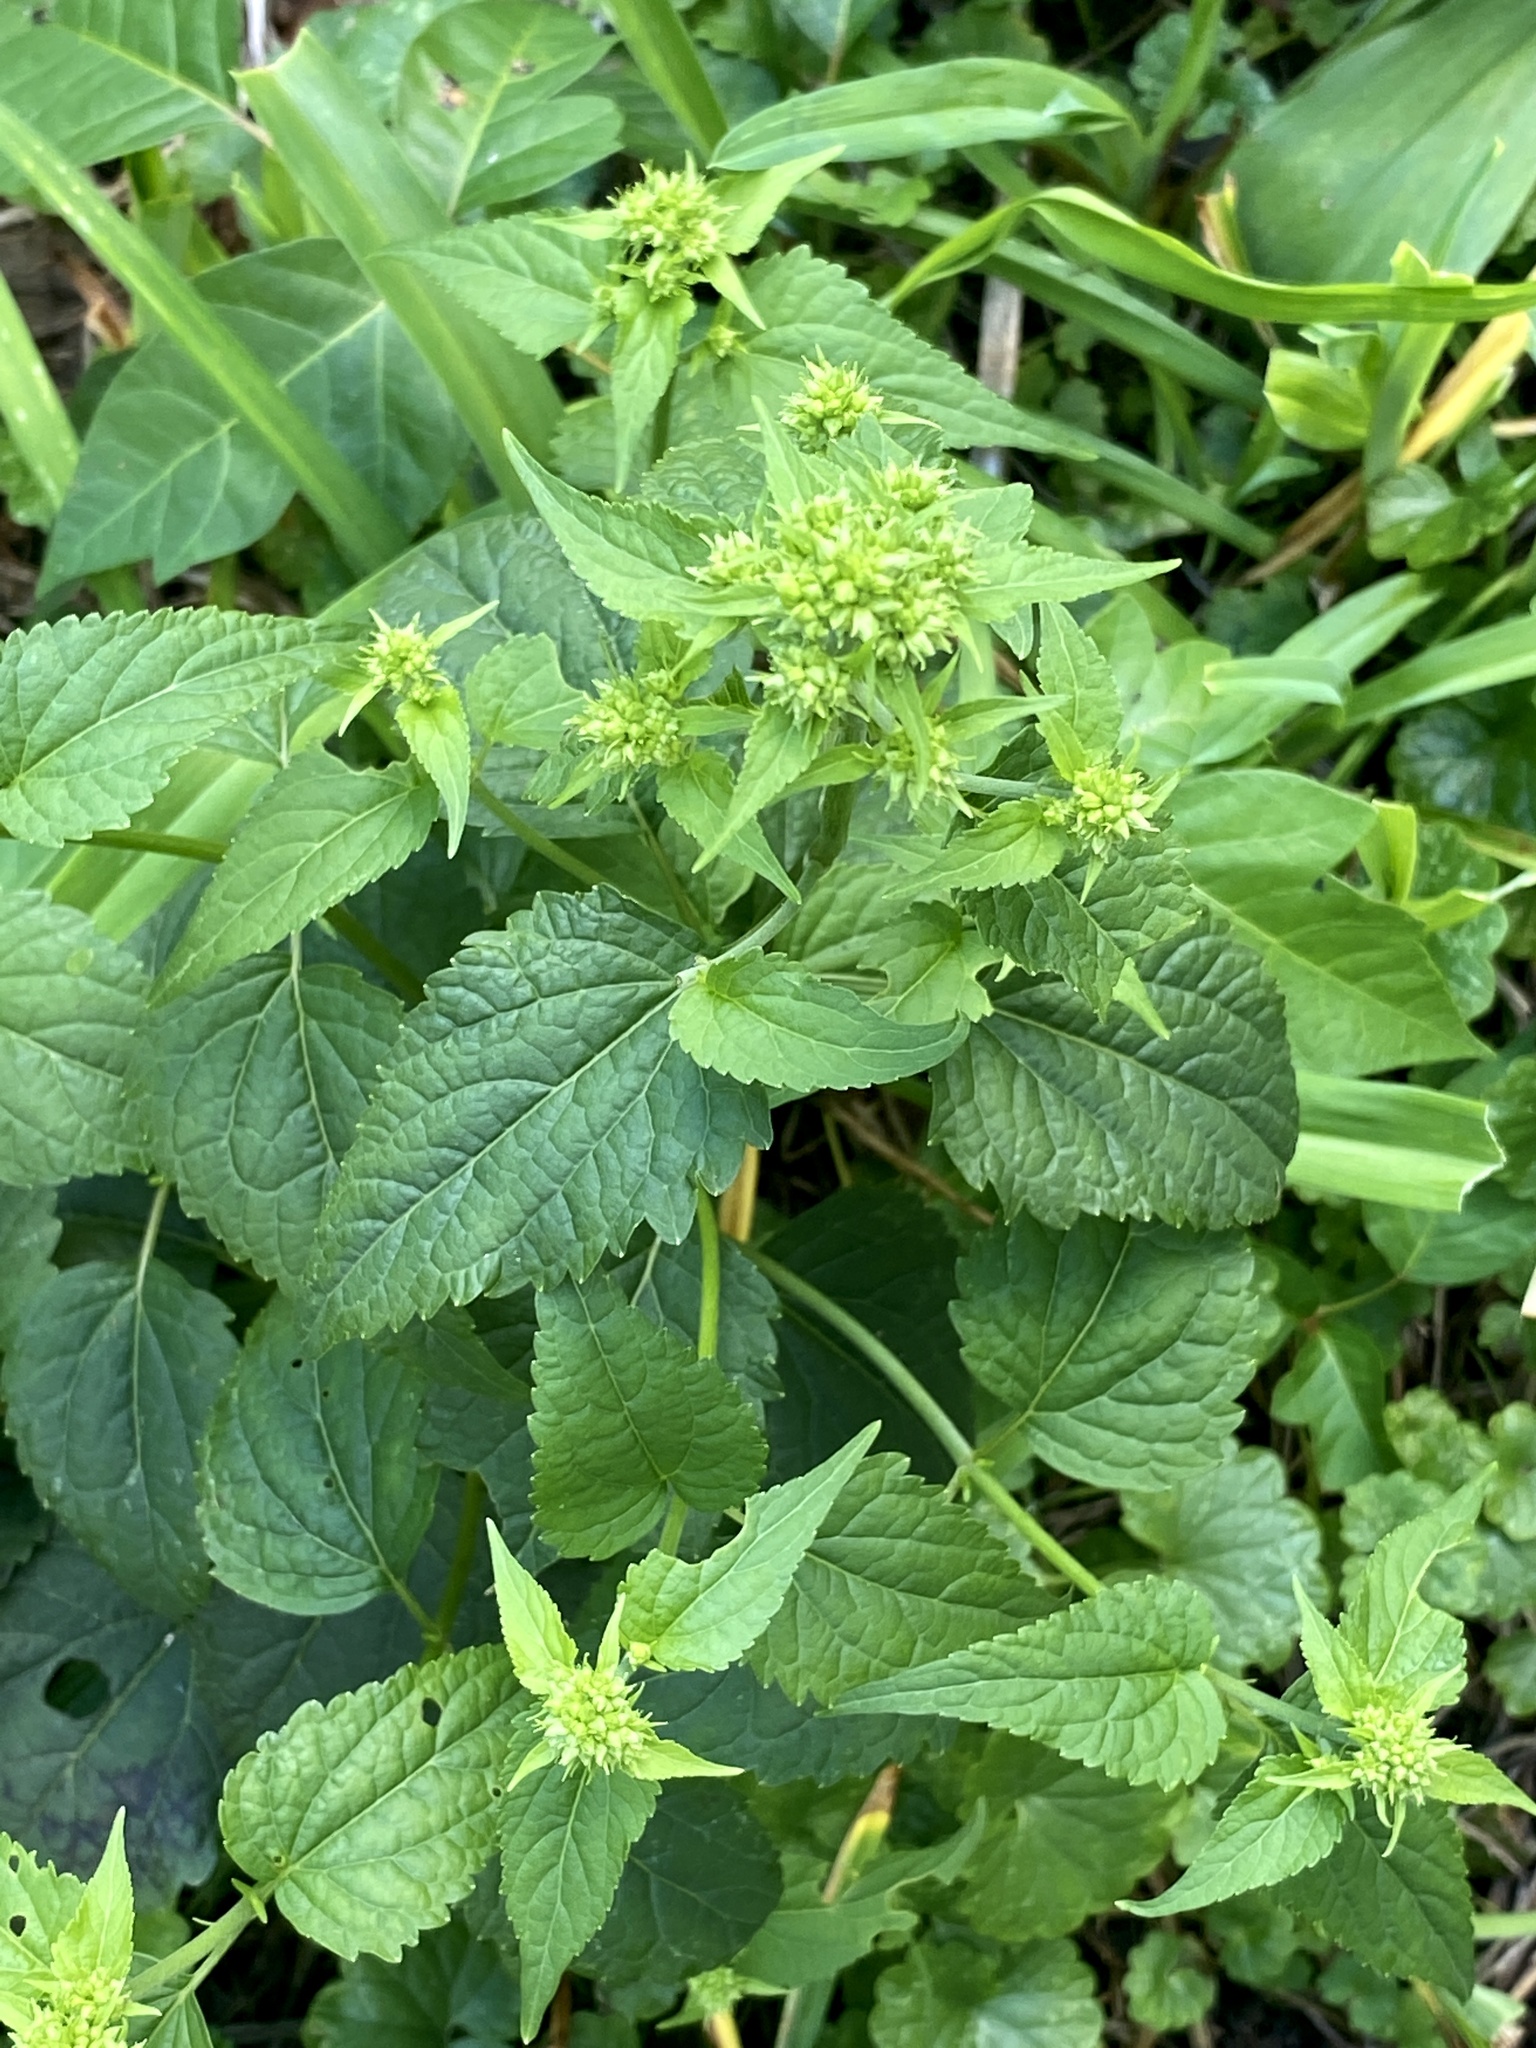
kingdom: Plantae
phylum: Tracheophyta
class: Magnoliopsida
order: Asterales
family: Asteraceae
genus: Ageratina
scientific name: Ageratina altissima
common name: White snakeroot
